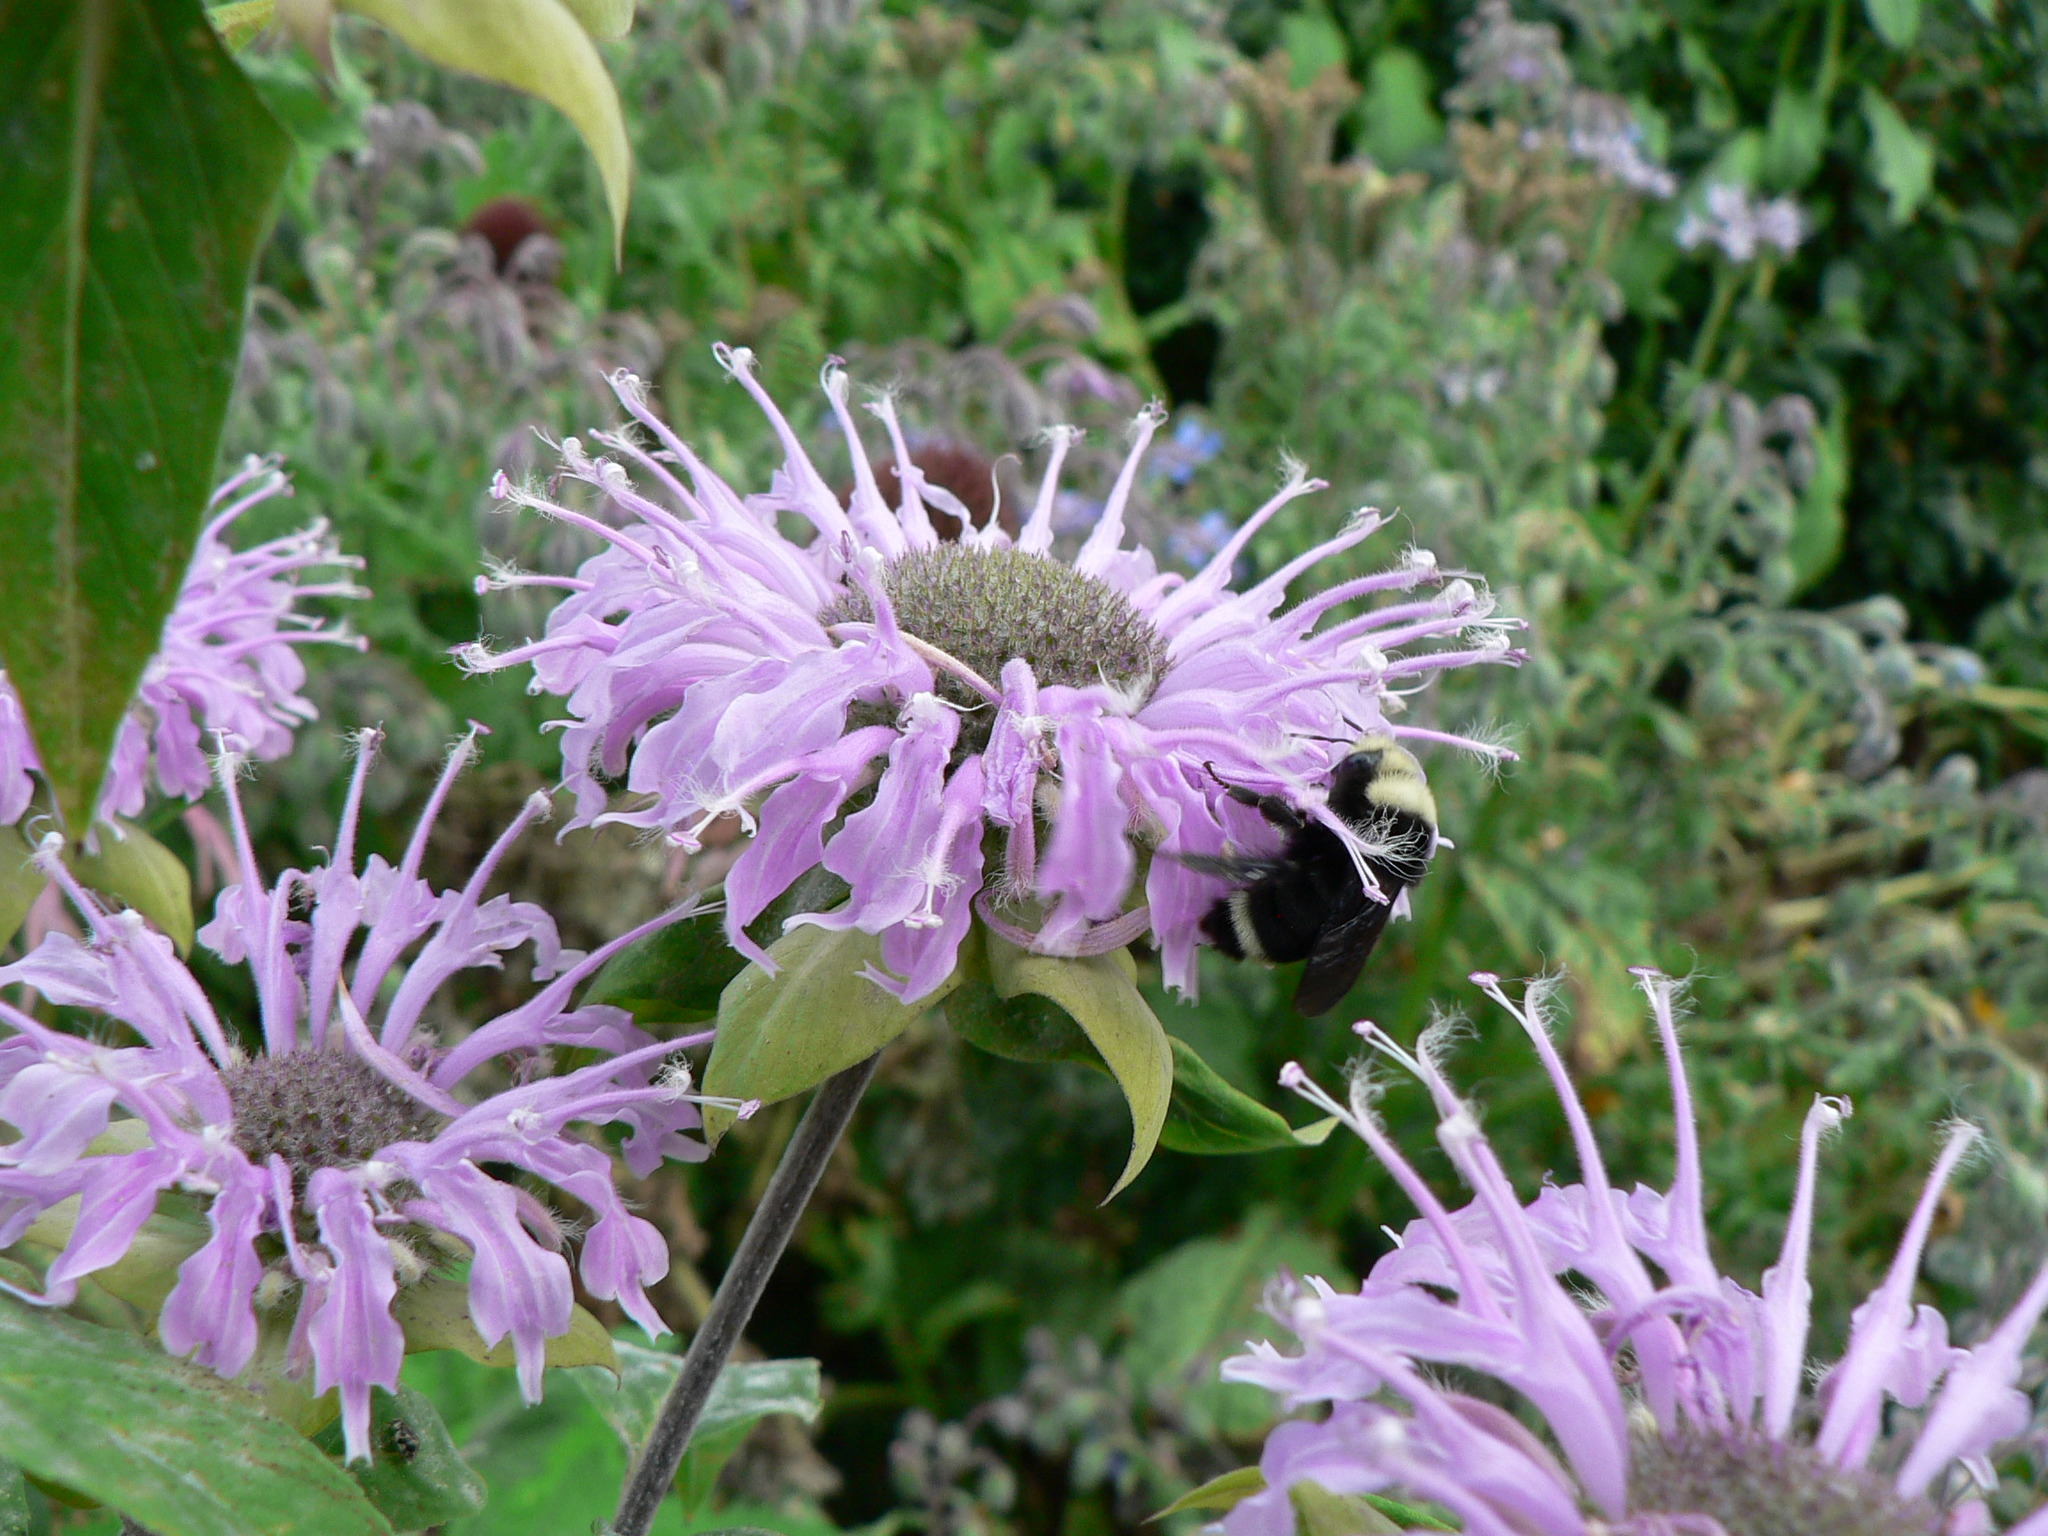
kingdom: Animalia
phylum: Arthropoda
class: Insecta
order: Hymenoptera
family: Apidae
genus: Bombus
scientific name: Bombus vosnesenskii
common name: Vosnesensky bumble bee
